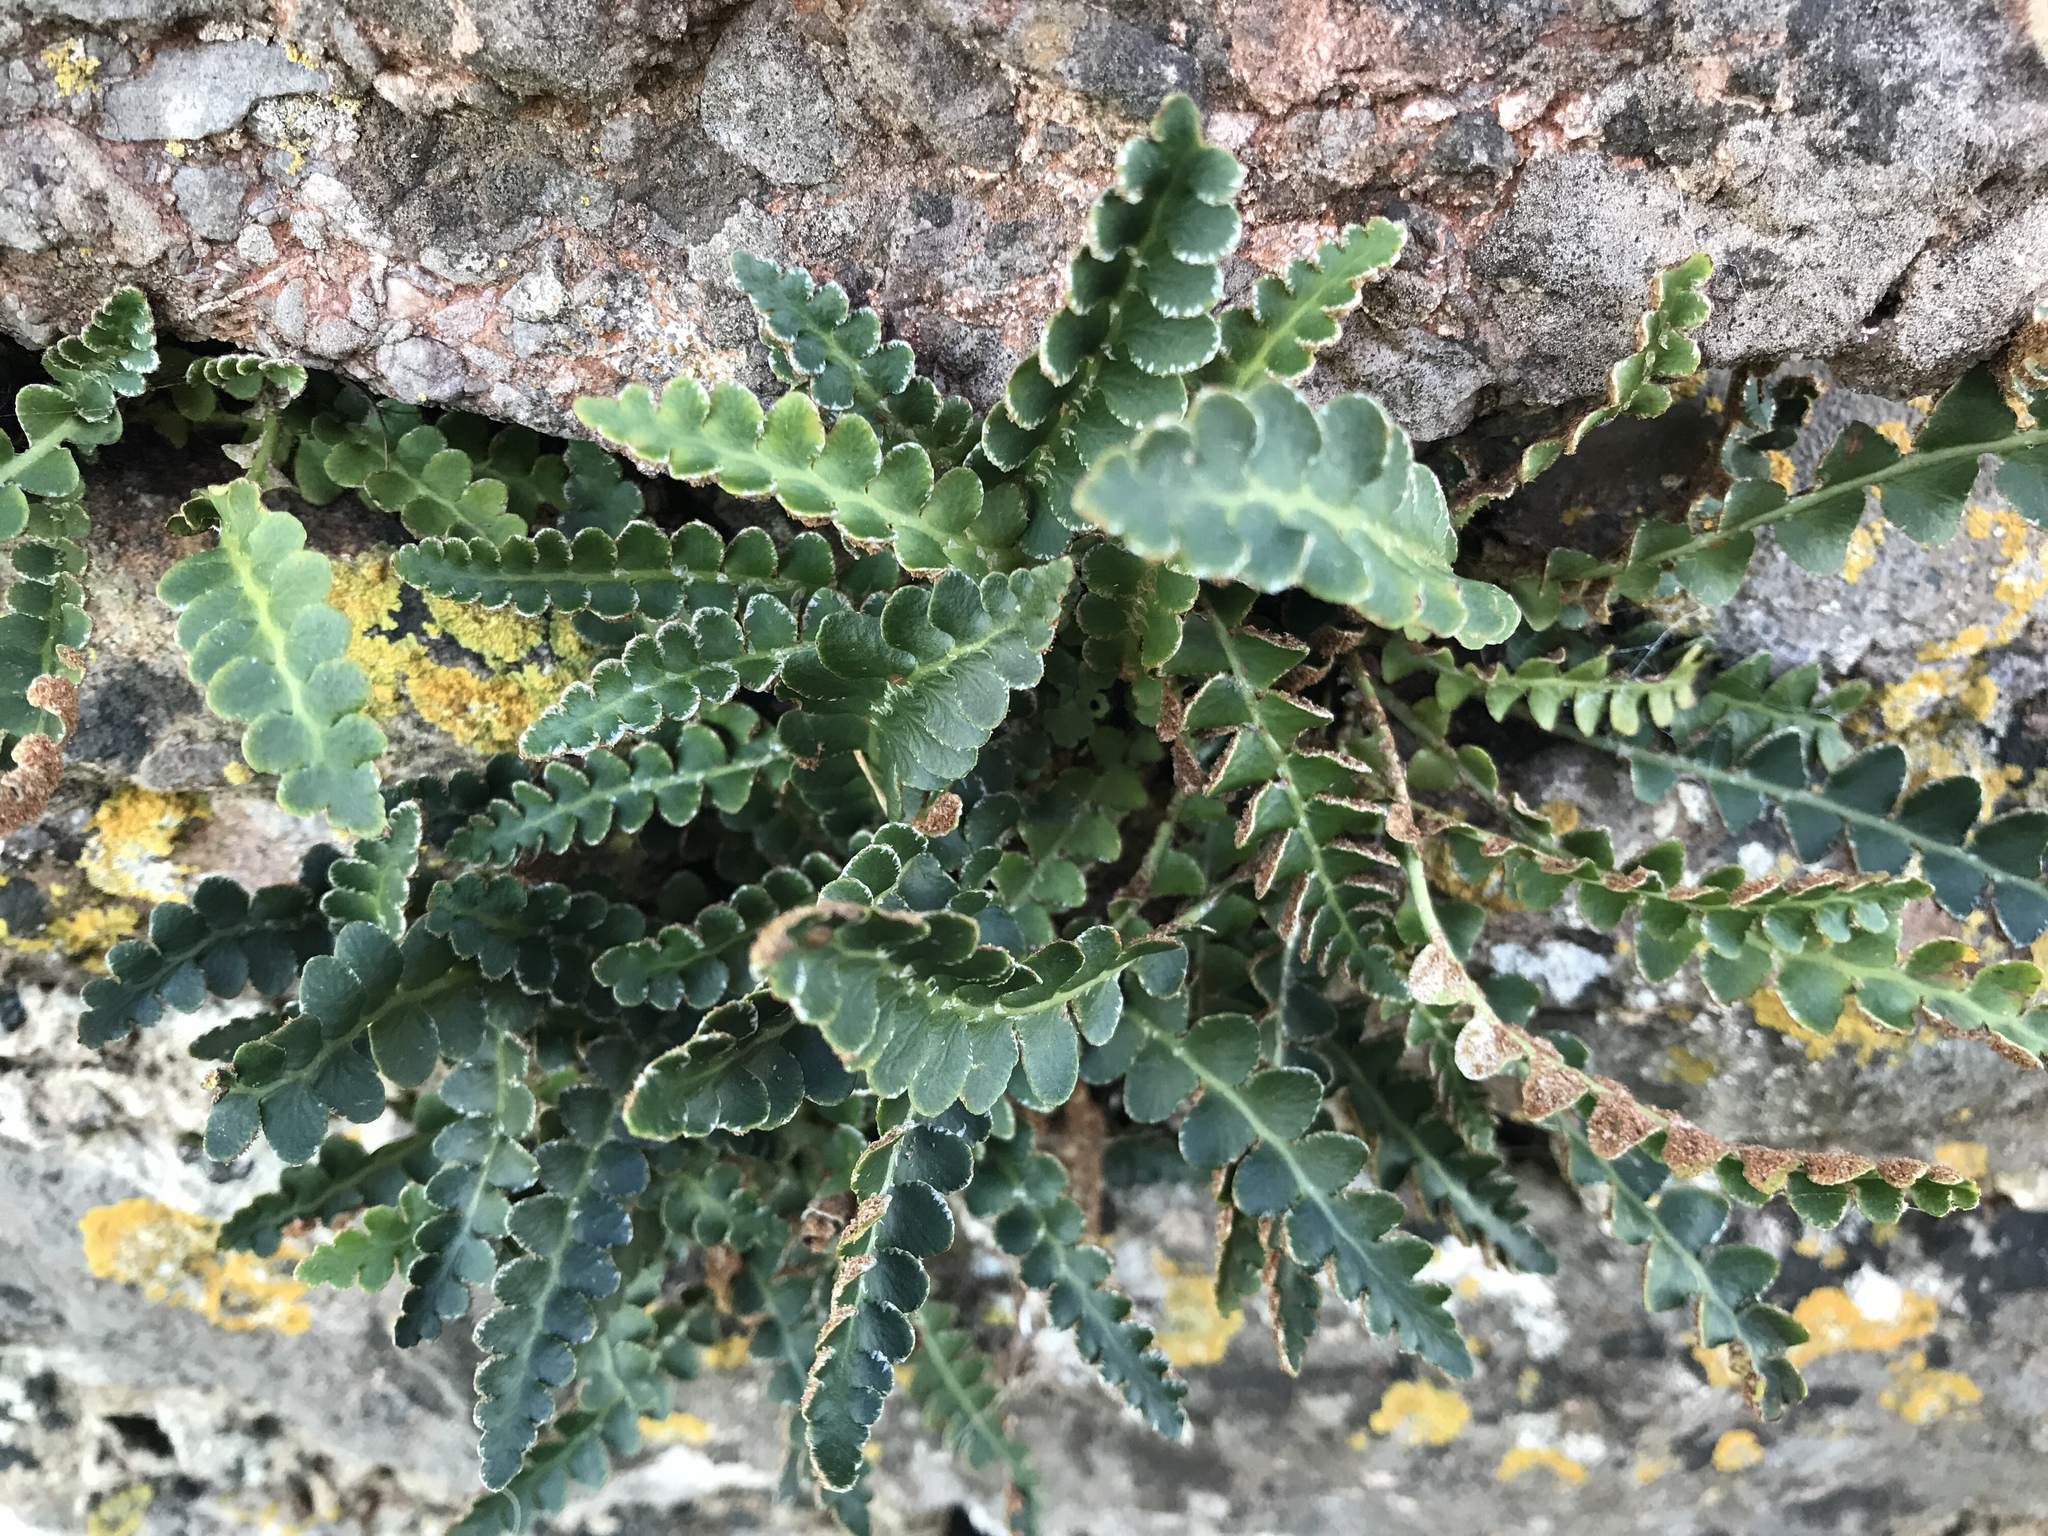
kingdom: Plantae
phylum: Tracheophyta
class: Polypodiopsida
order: Polypodiales
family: Aspleniaceae
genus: Asplenium
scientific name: Asplenium ceterach
